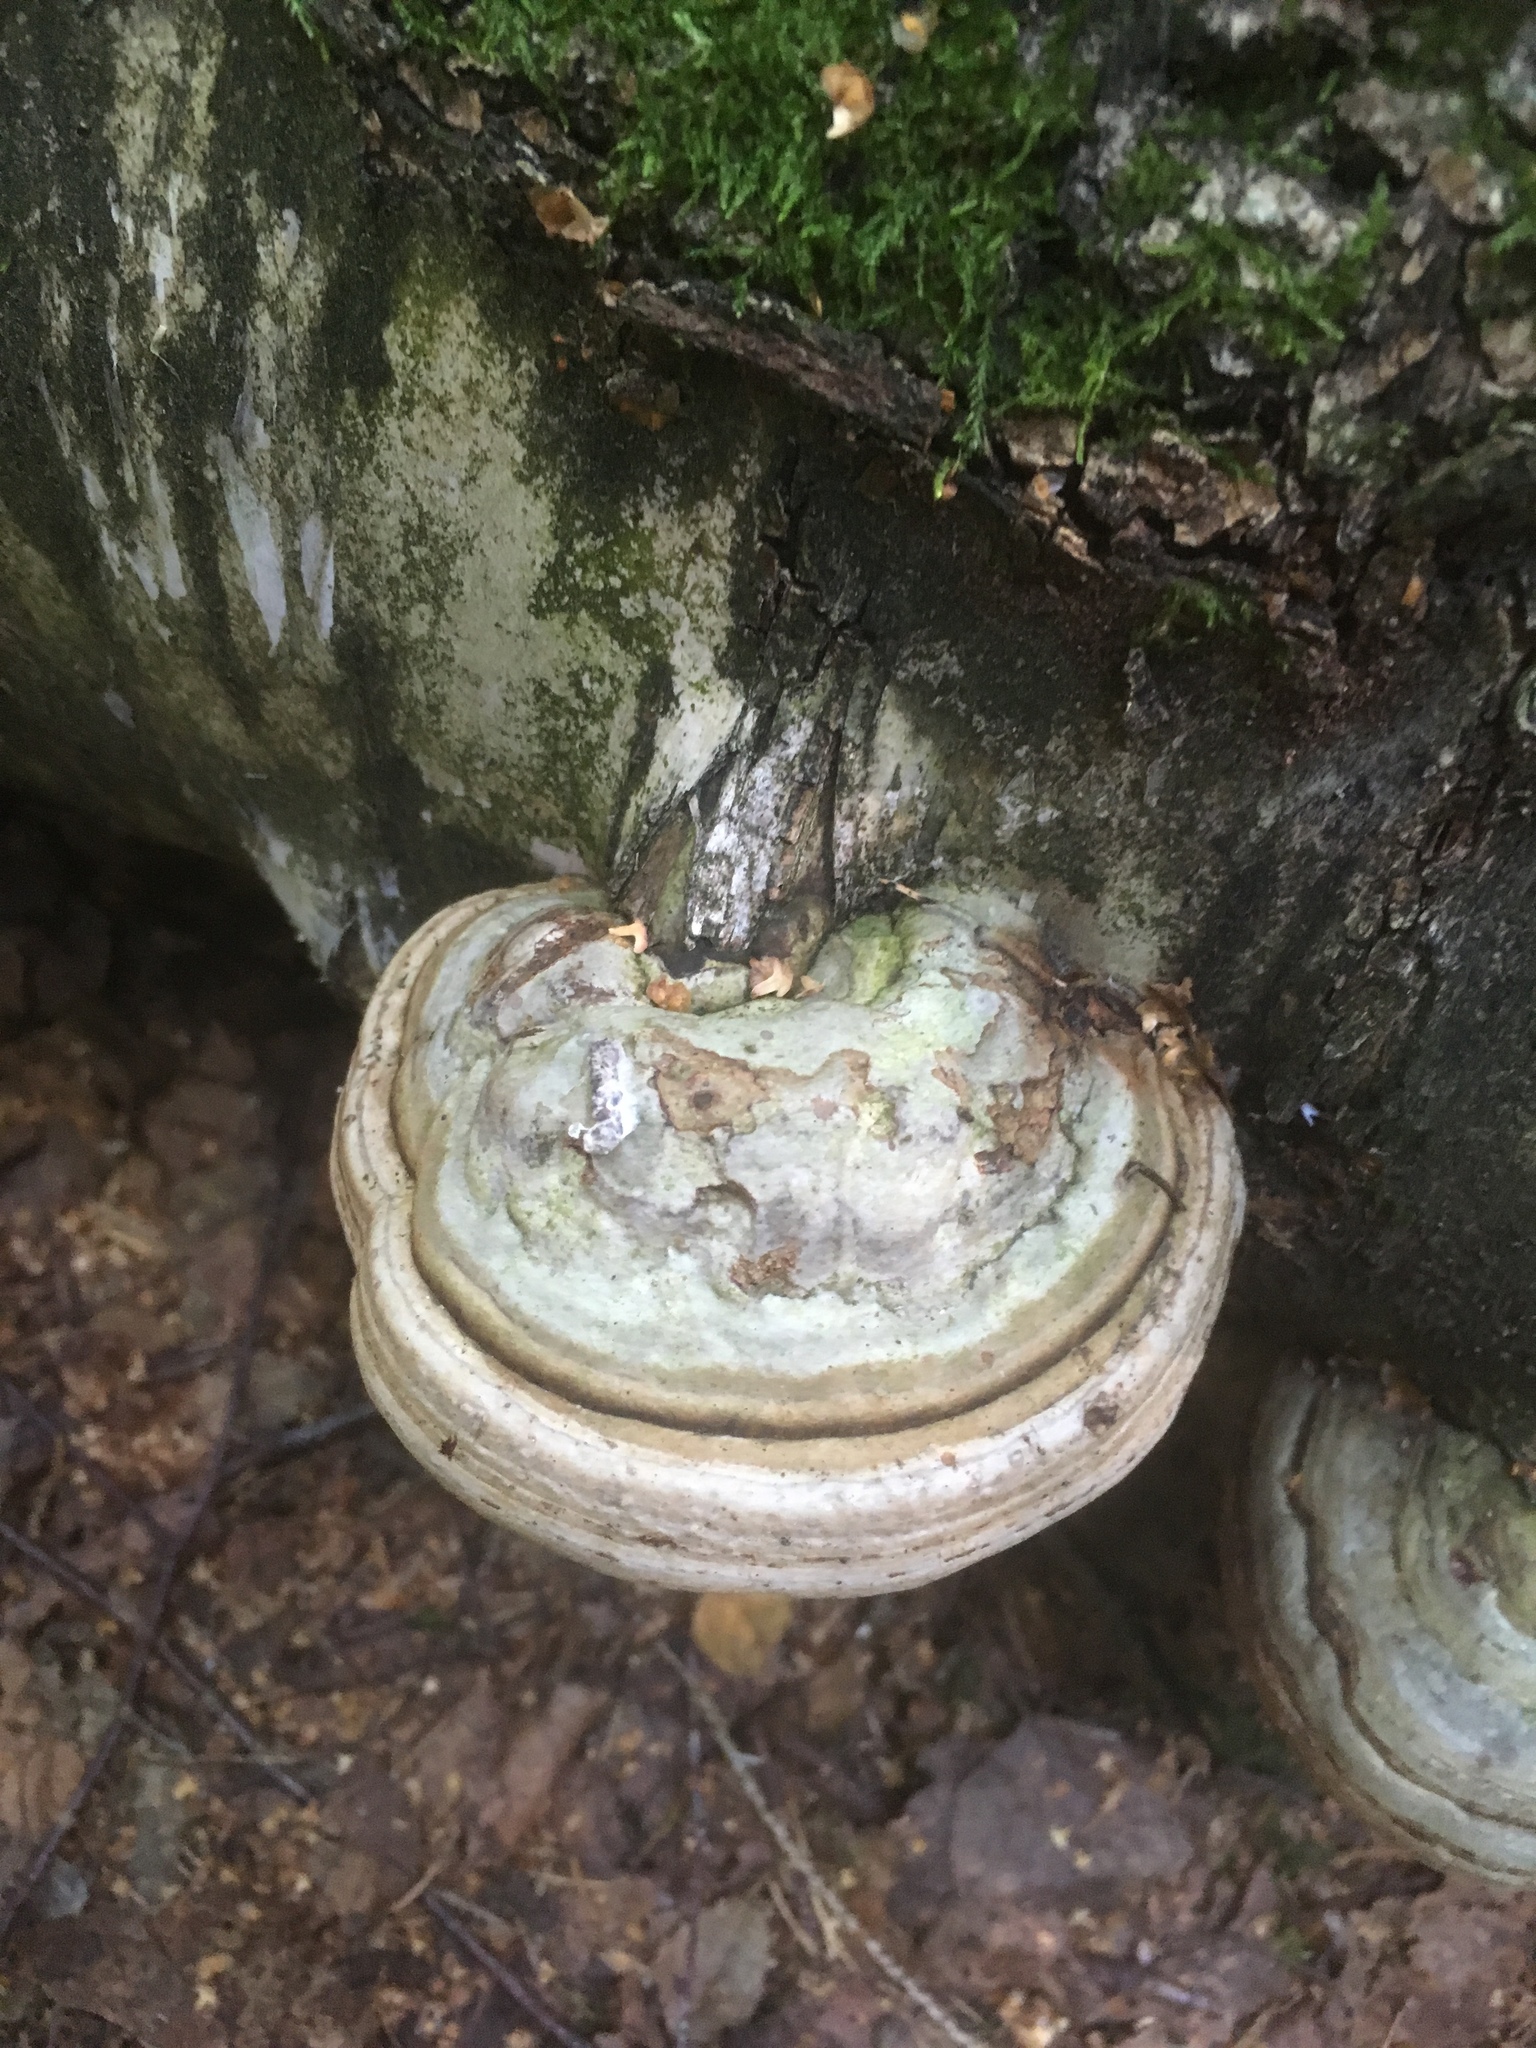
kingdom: Fungi
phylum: Basidiomycota
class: Agaricomycetes
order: Polyporales
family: Polyporaceae
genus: Fomes
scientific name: Fomes fomentarius
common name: Hoof fungus
